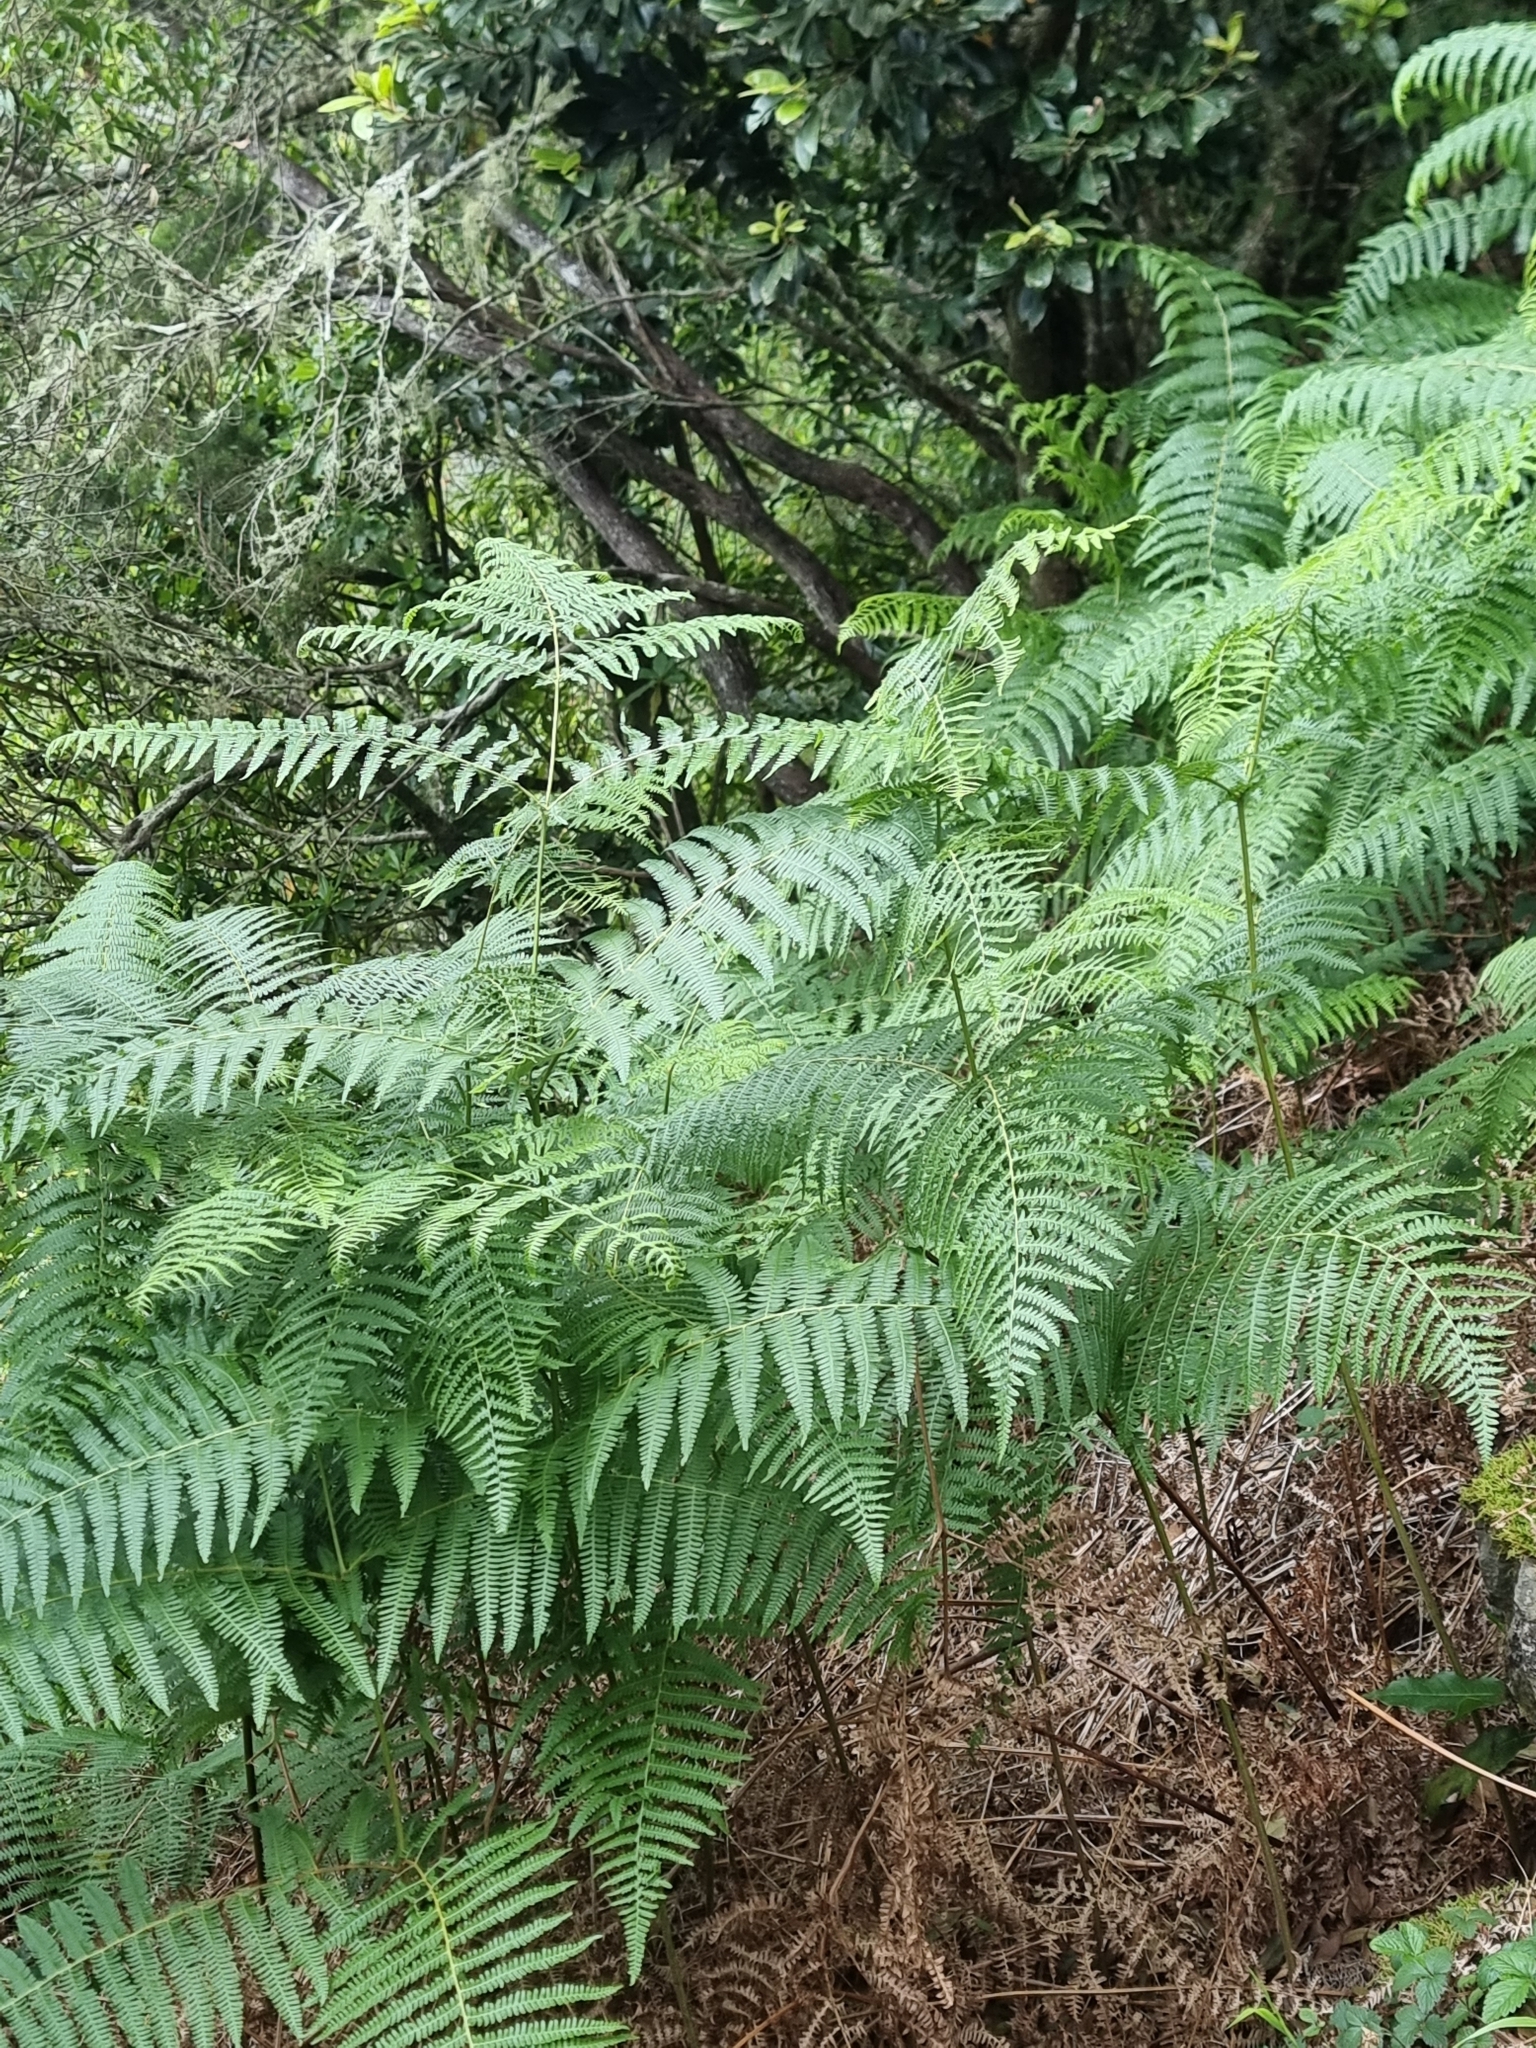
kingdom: Plantae
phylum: Tracheophyta
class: Polypodiopsida
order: Polypodiales
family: Dennstaedtiaceae
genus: Pteridium
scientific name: Pteridium aquilinum
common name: Bracken
